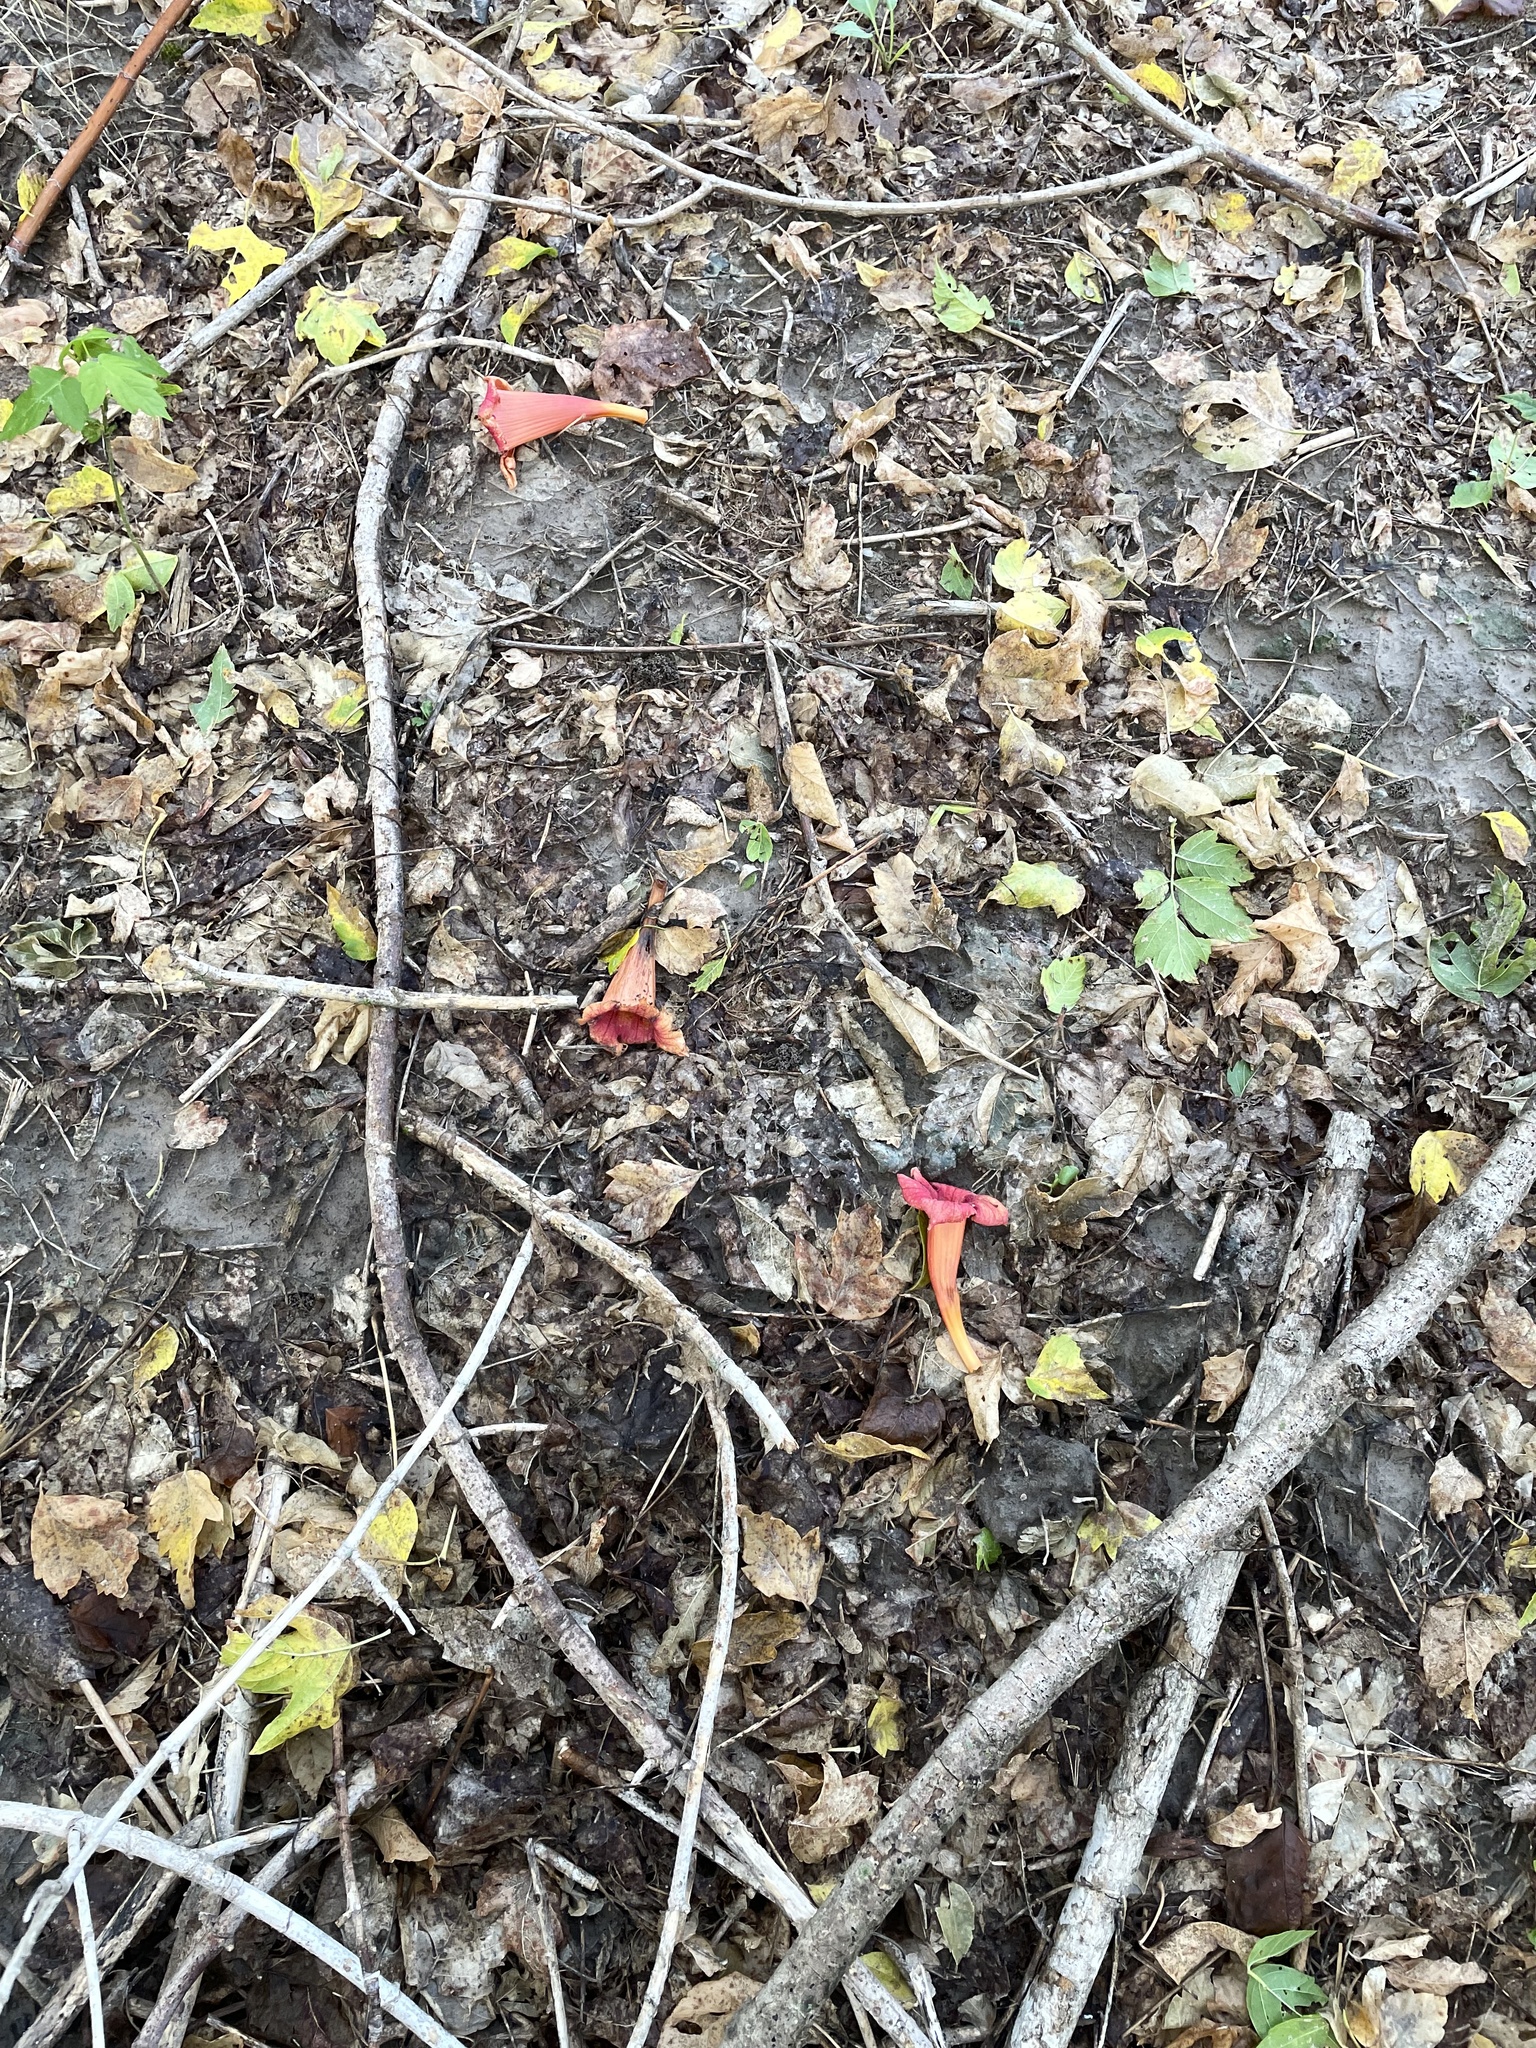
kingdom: Plantae
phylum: Tracheophyta
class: Magnoliopsida
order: Lamiales
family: Bignoniaceae
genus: Campsis
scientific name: Campsis radicans
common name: Trumpet-creeper
